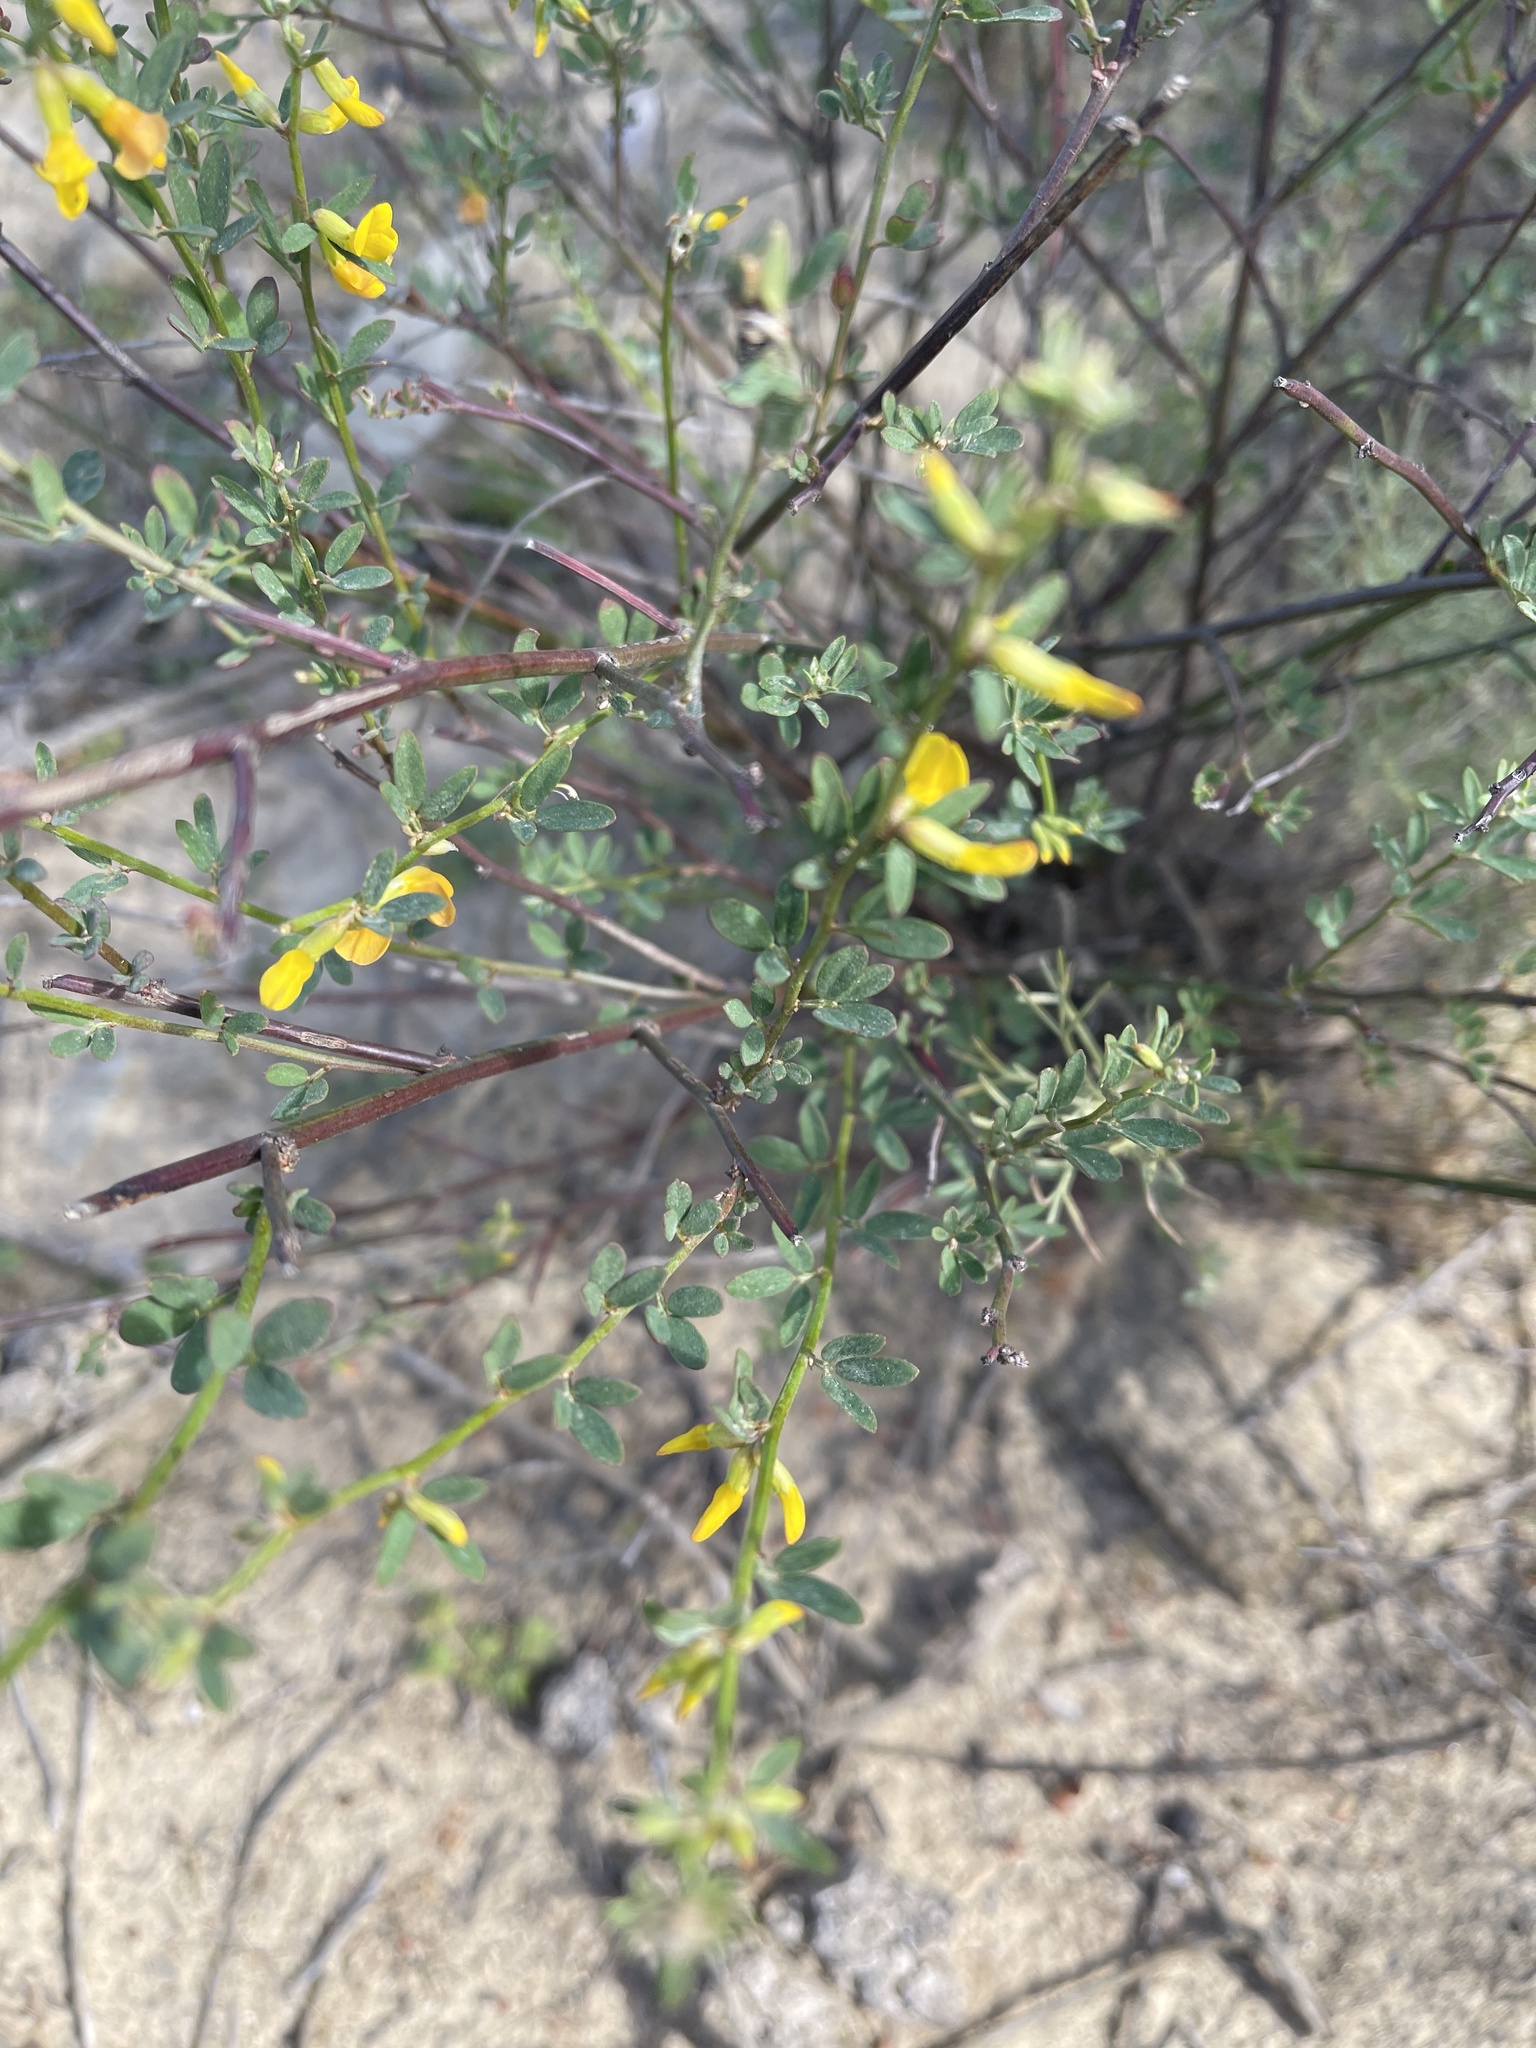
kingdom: Plantae
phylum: Tracheophyta
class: Magnoliopsida
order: Fabales
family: Fabaceae
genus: Acmispon
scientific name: Acmispon glaber
